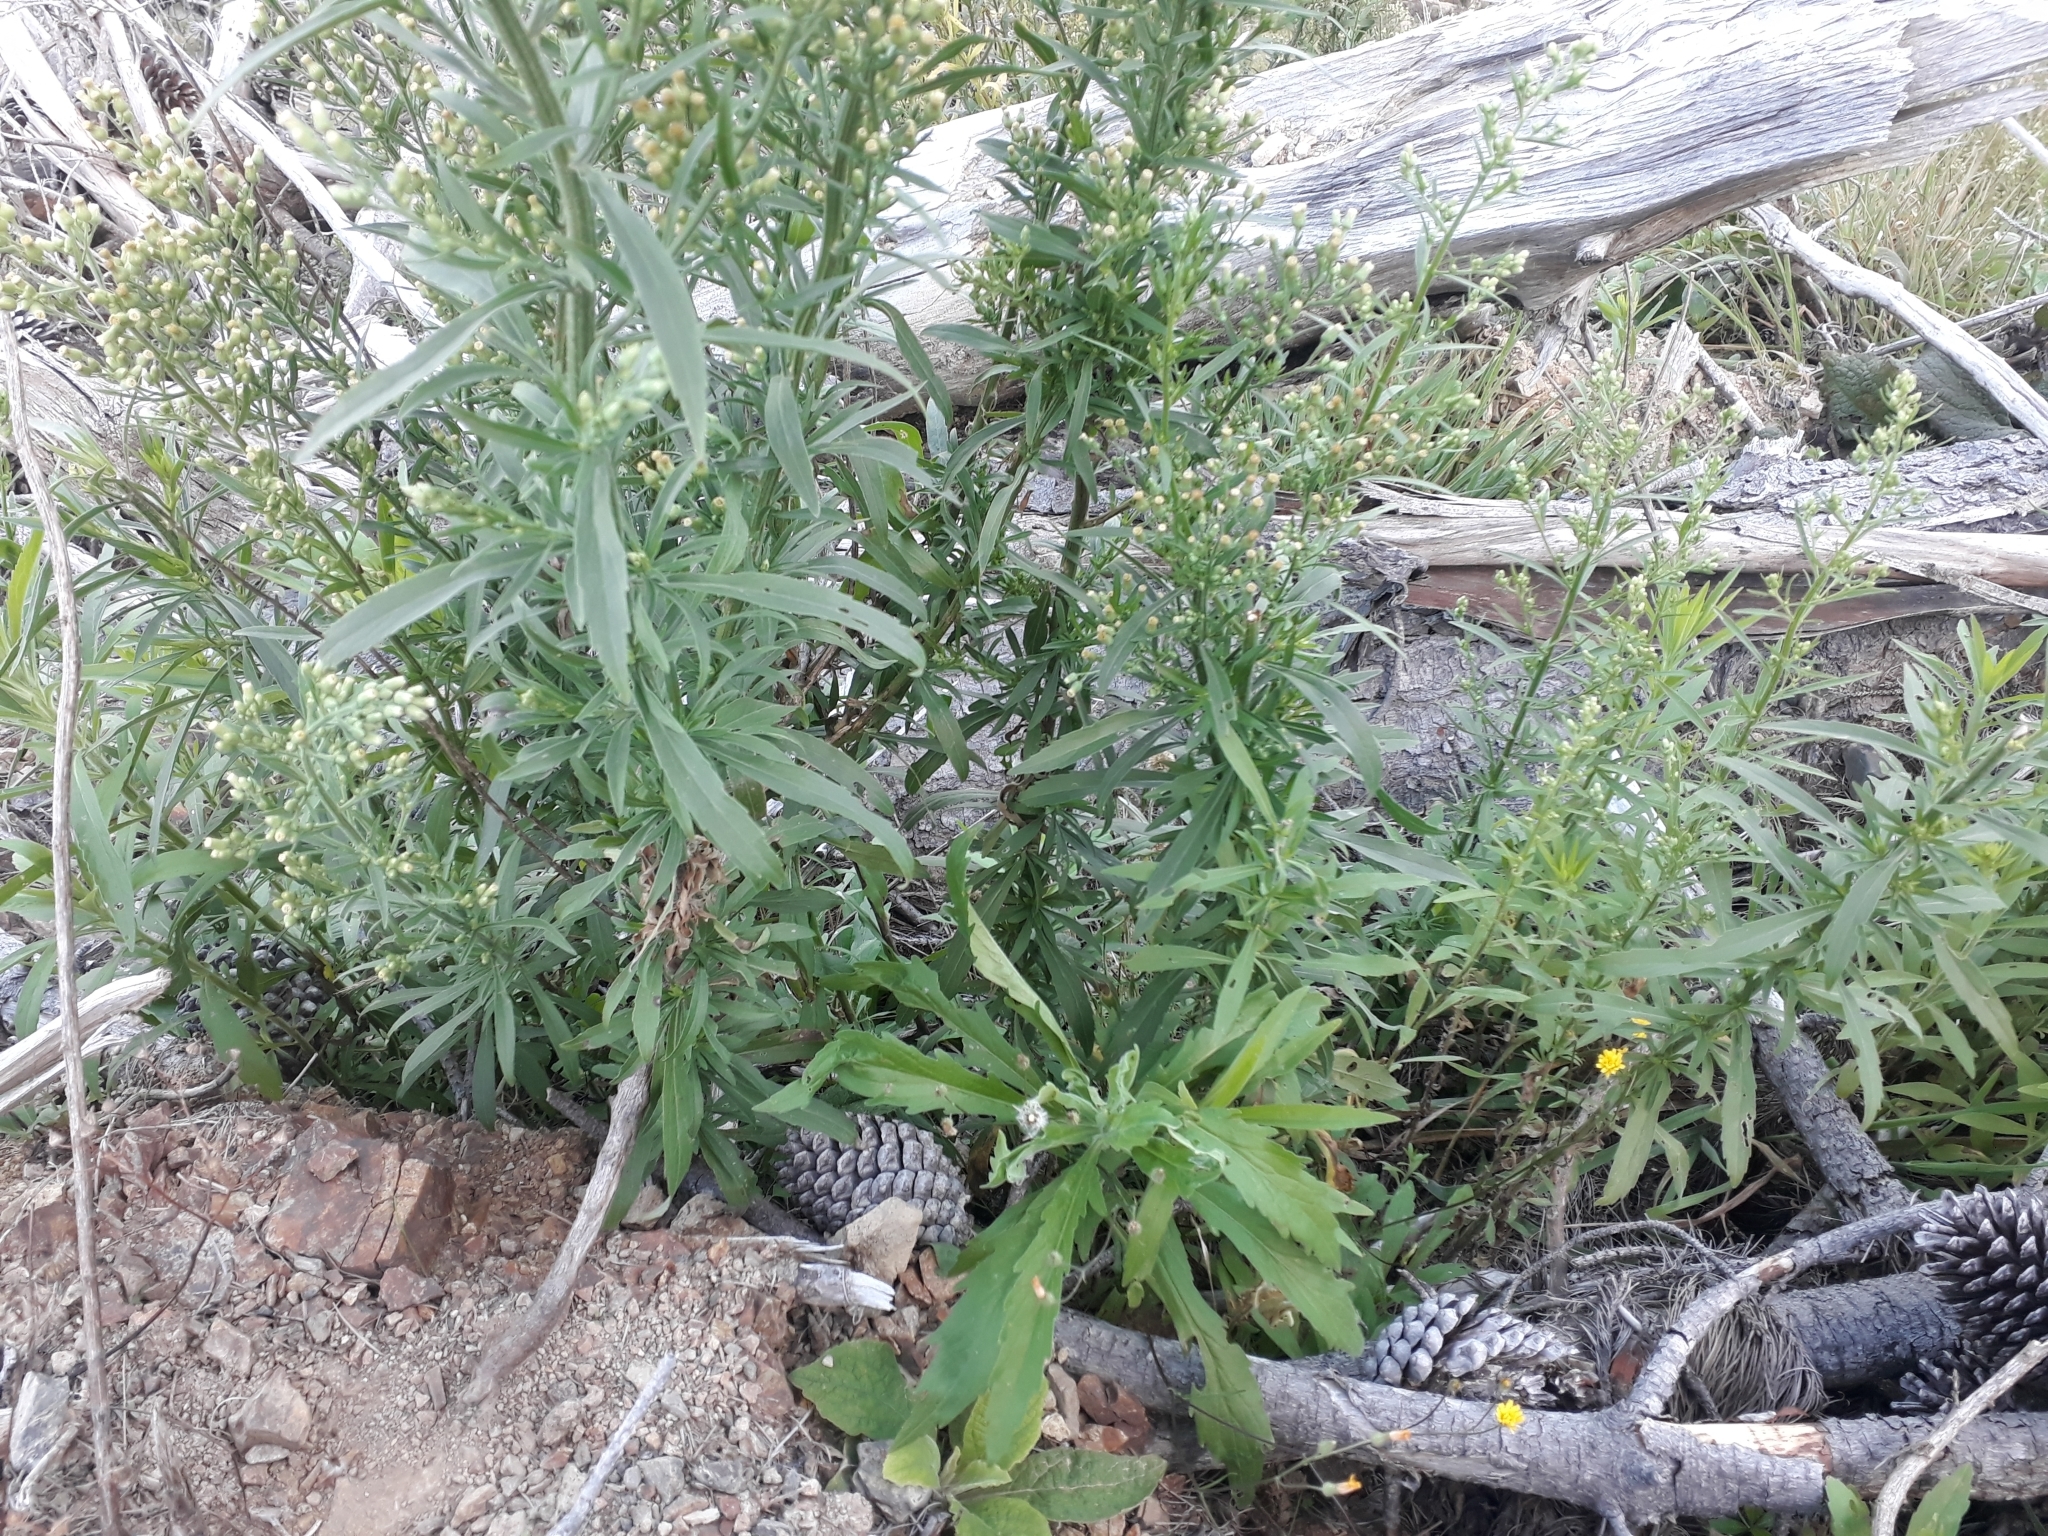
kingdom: Plantae
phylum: Tracheophyta
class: Magnoliopsida
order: Asterales
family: Asteraceae
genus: Erigeron
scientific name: Erigeron sumatrensis
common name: Daisy
